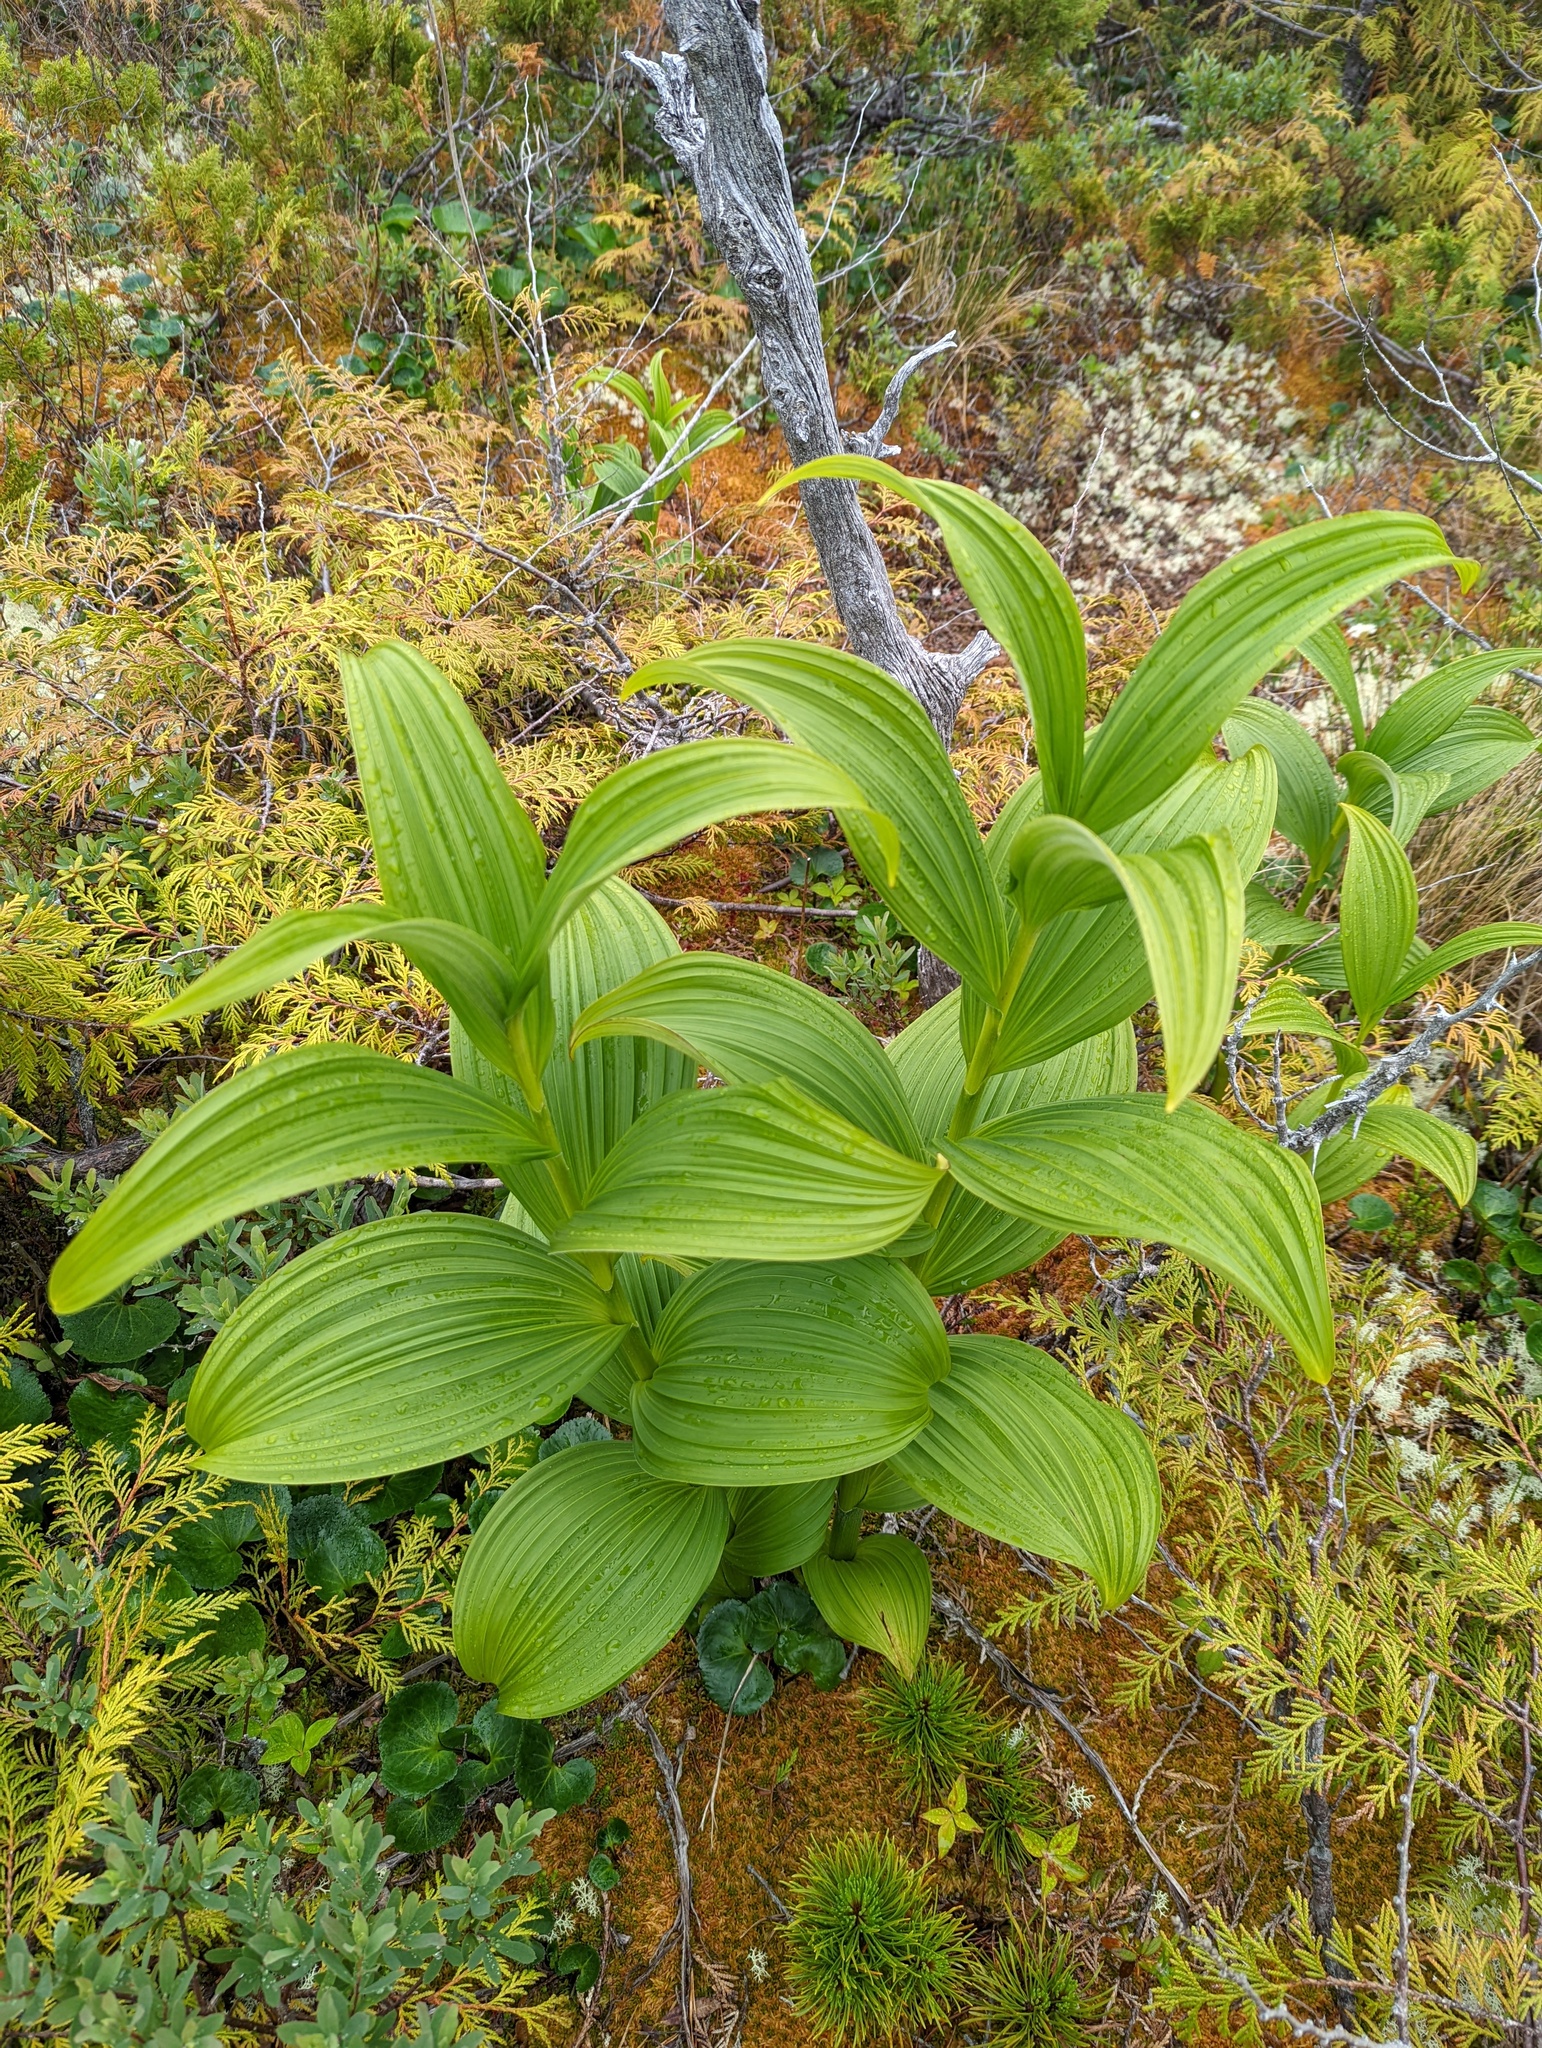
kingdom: Plantae
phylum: Tracheophyta
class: Liliopsida
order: Liliales
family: Melanthiaceae
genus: Veratrum
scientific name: Veratrum viride
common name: American false hellebore
